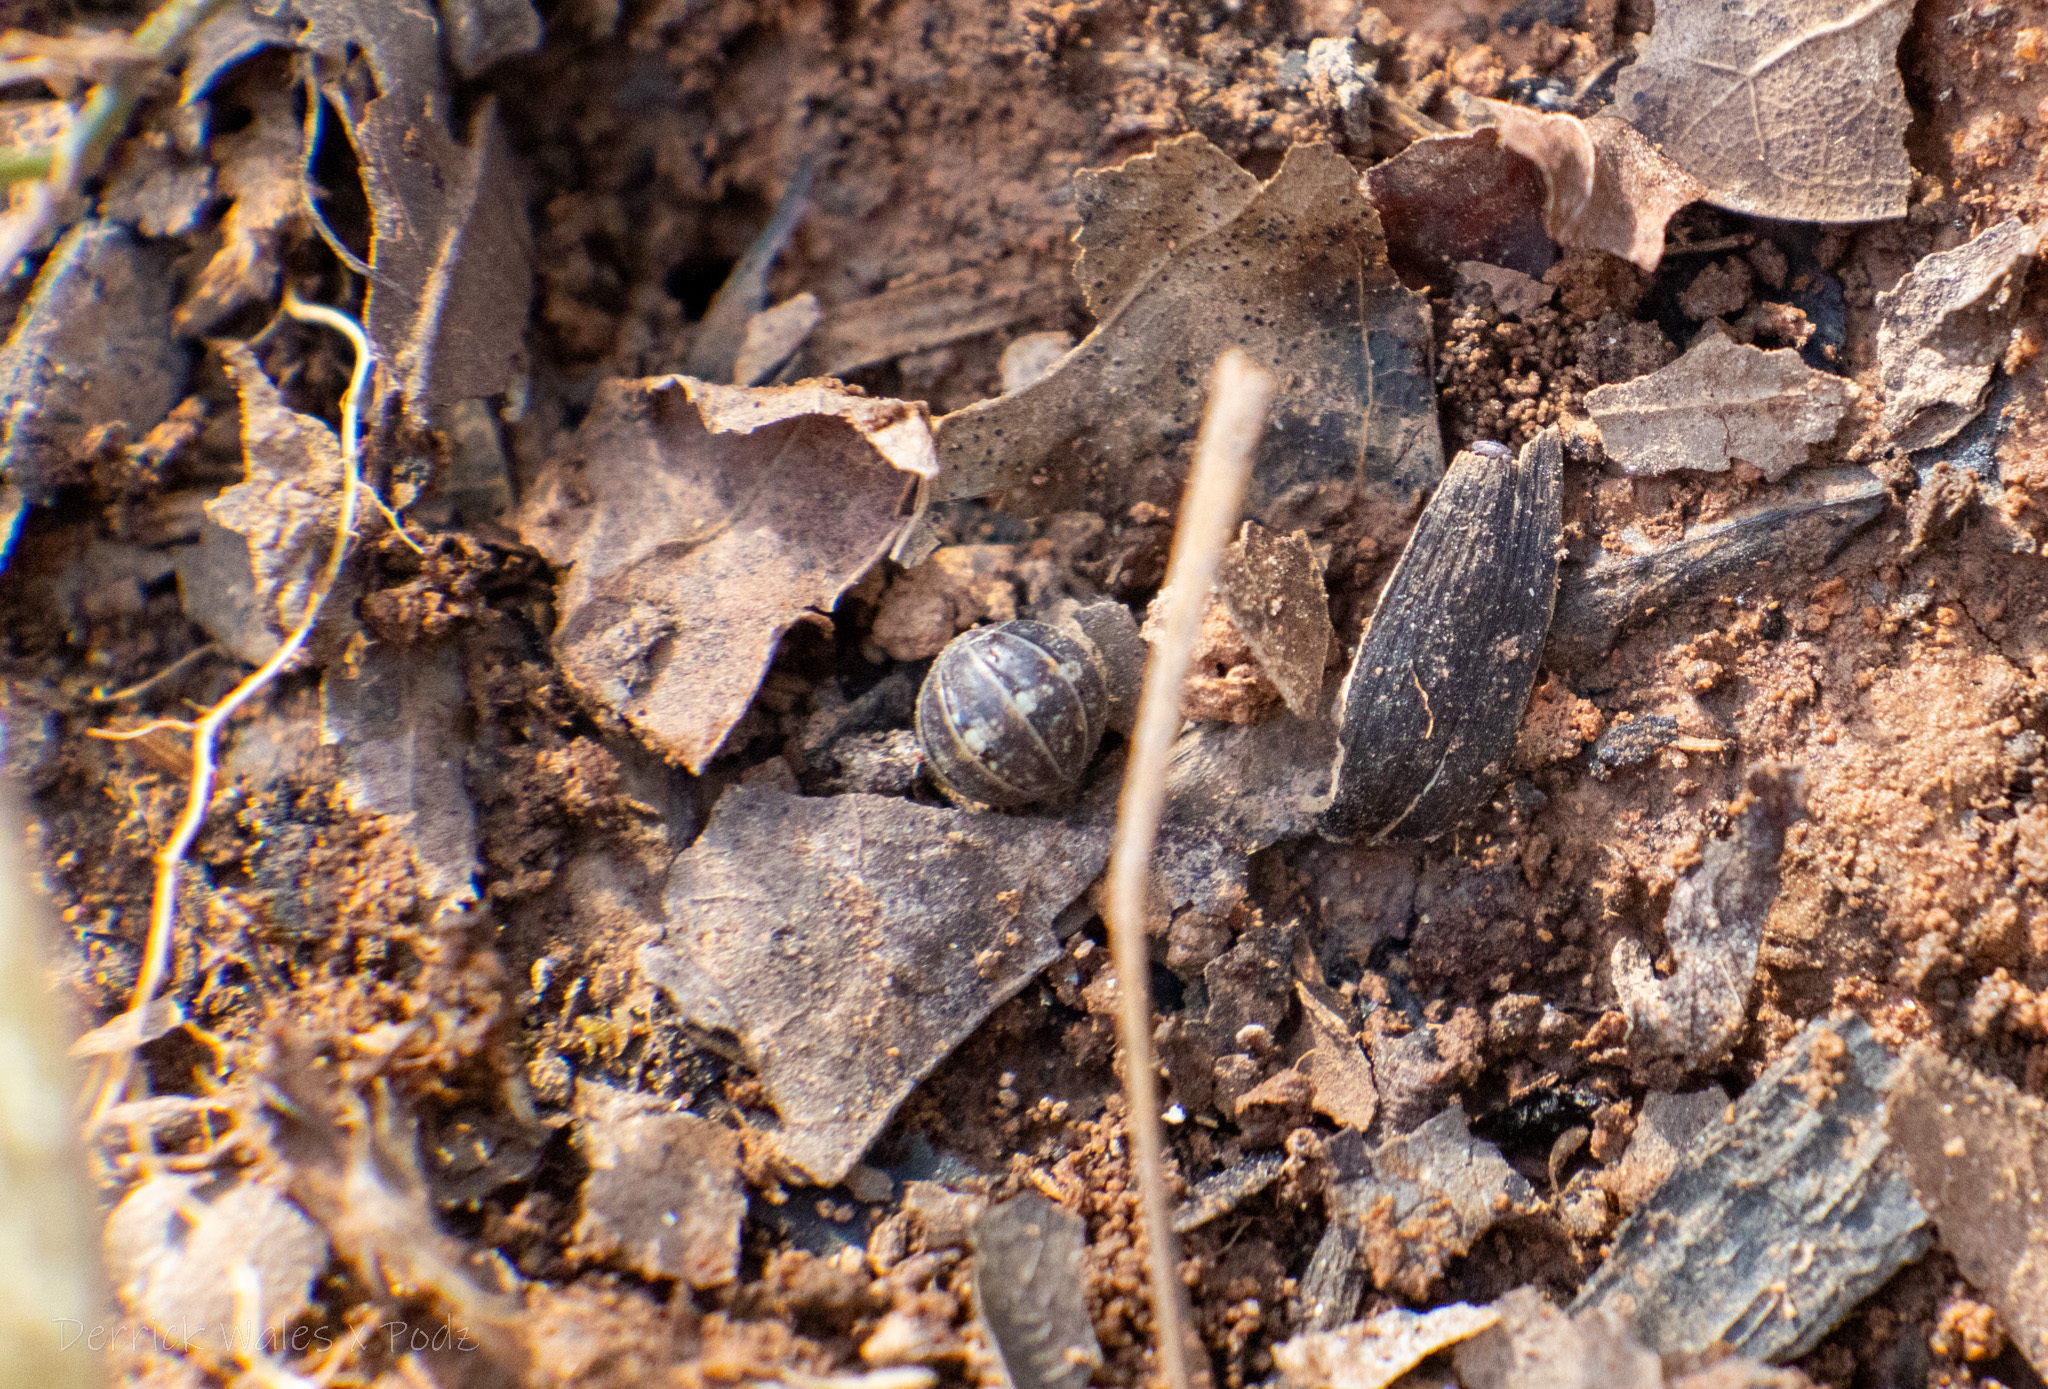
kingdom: Animalia
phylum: Arthropoda
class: Malacostraca
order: Isopoda
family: Armadillidiidae
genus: Armadillidium
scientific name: Armadillidium vulgare
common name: Common pill woodlouse
